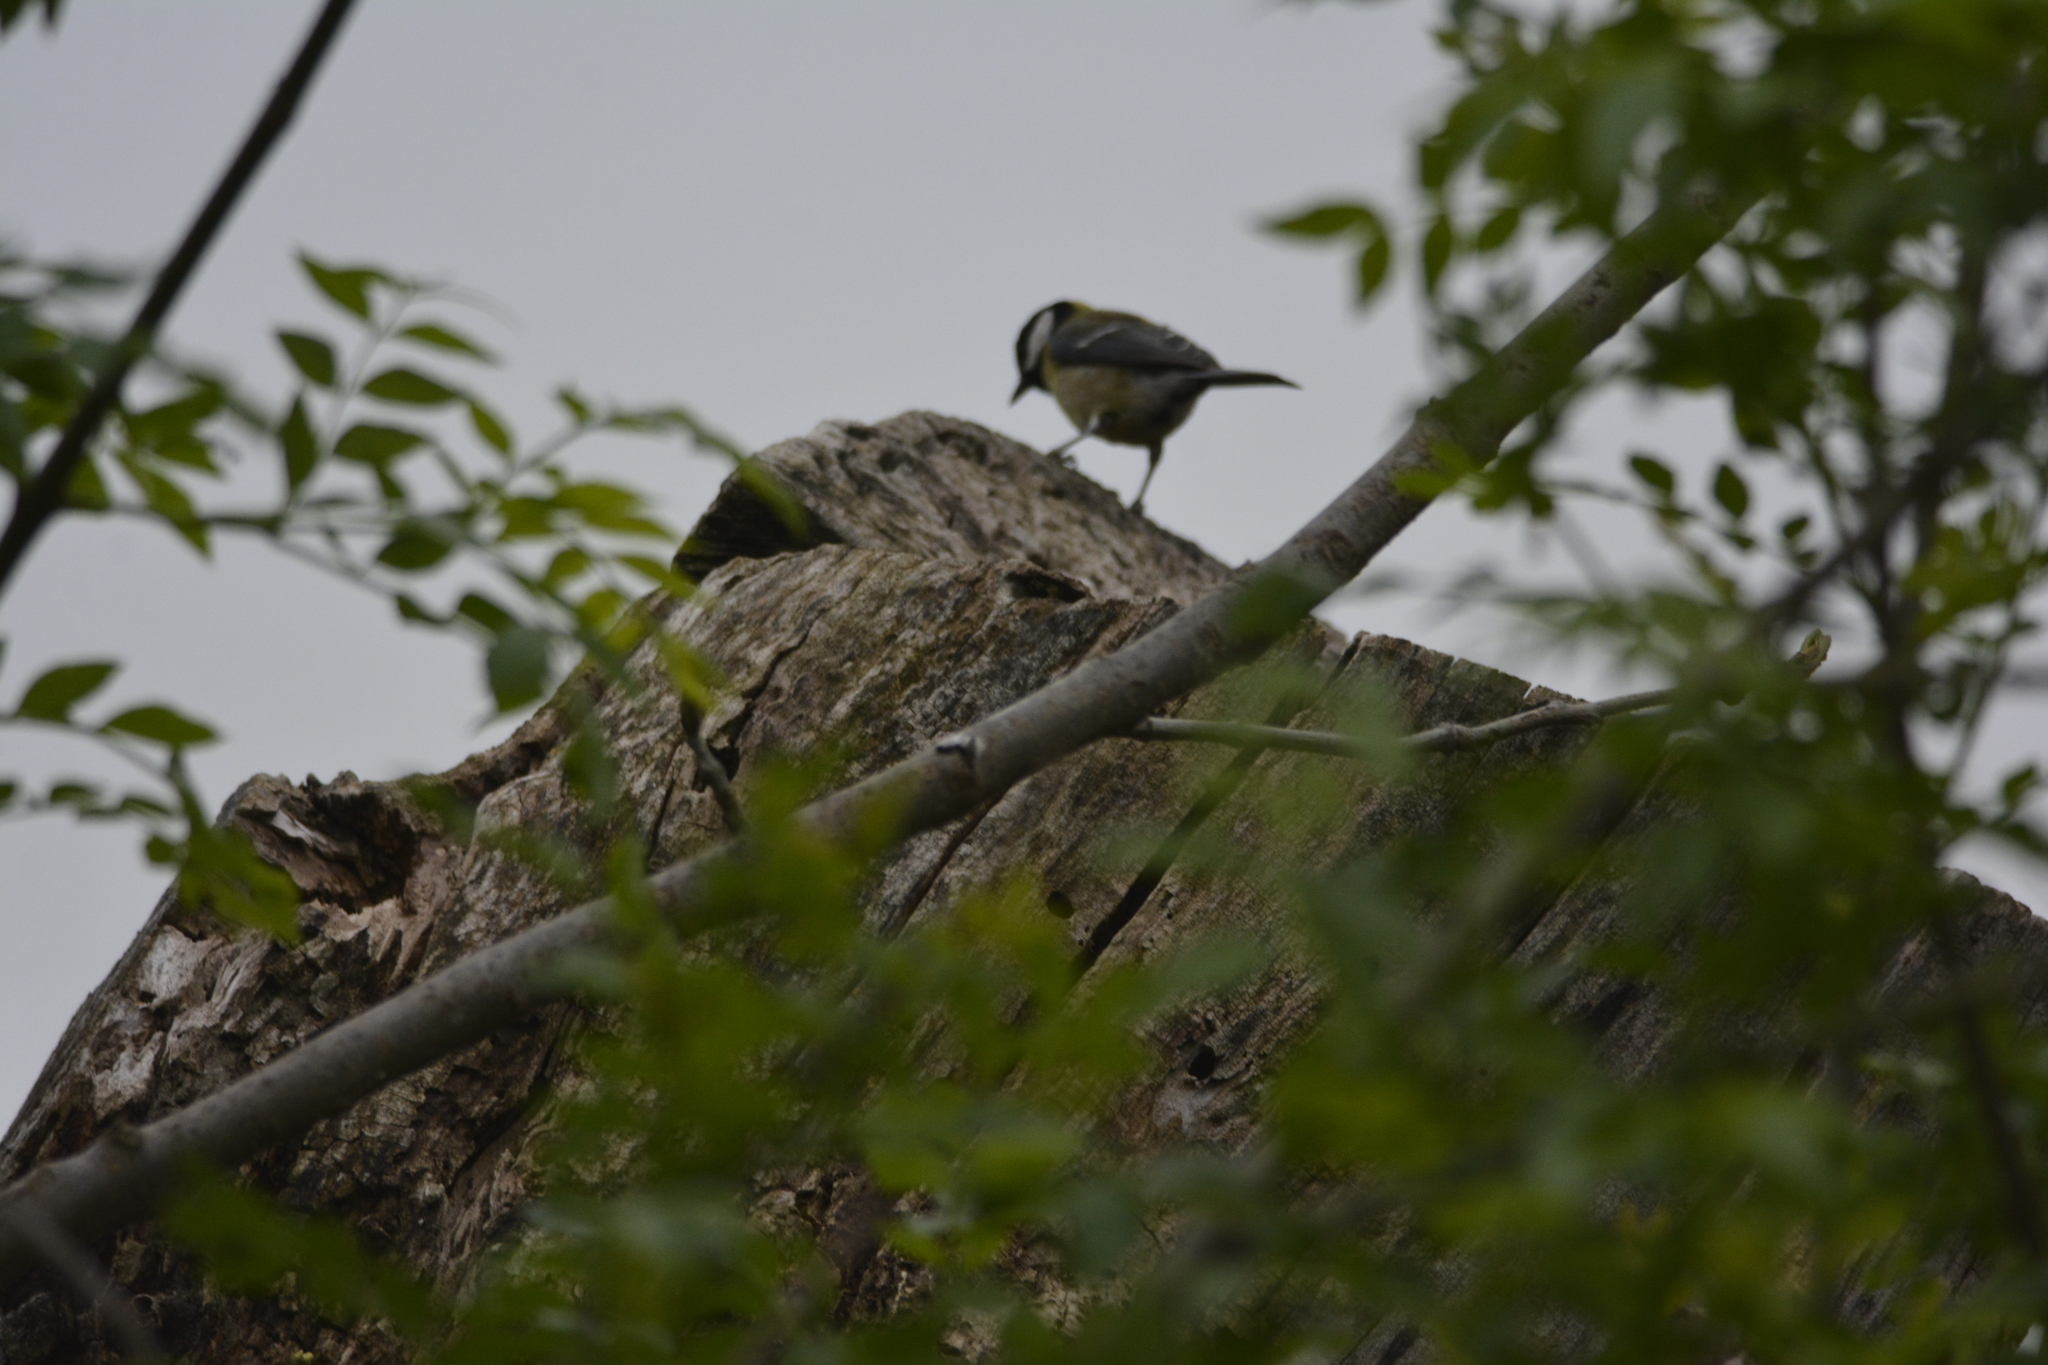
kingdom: Animalia
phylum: Chordata
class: Aves
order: Passeriformes
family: Paridae
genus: Parus
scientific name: Parus major
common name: Great tit
